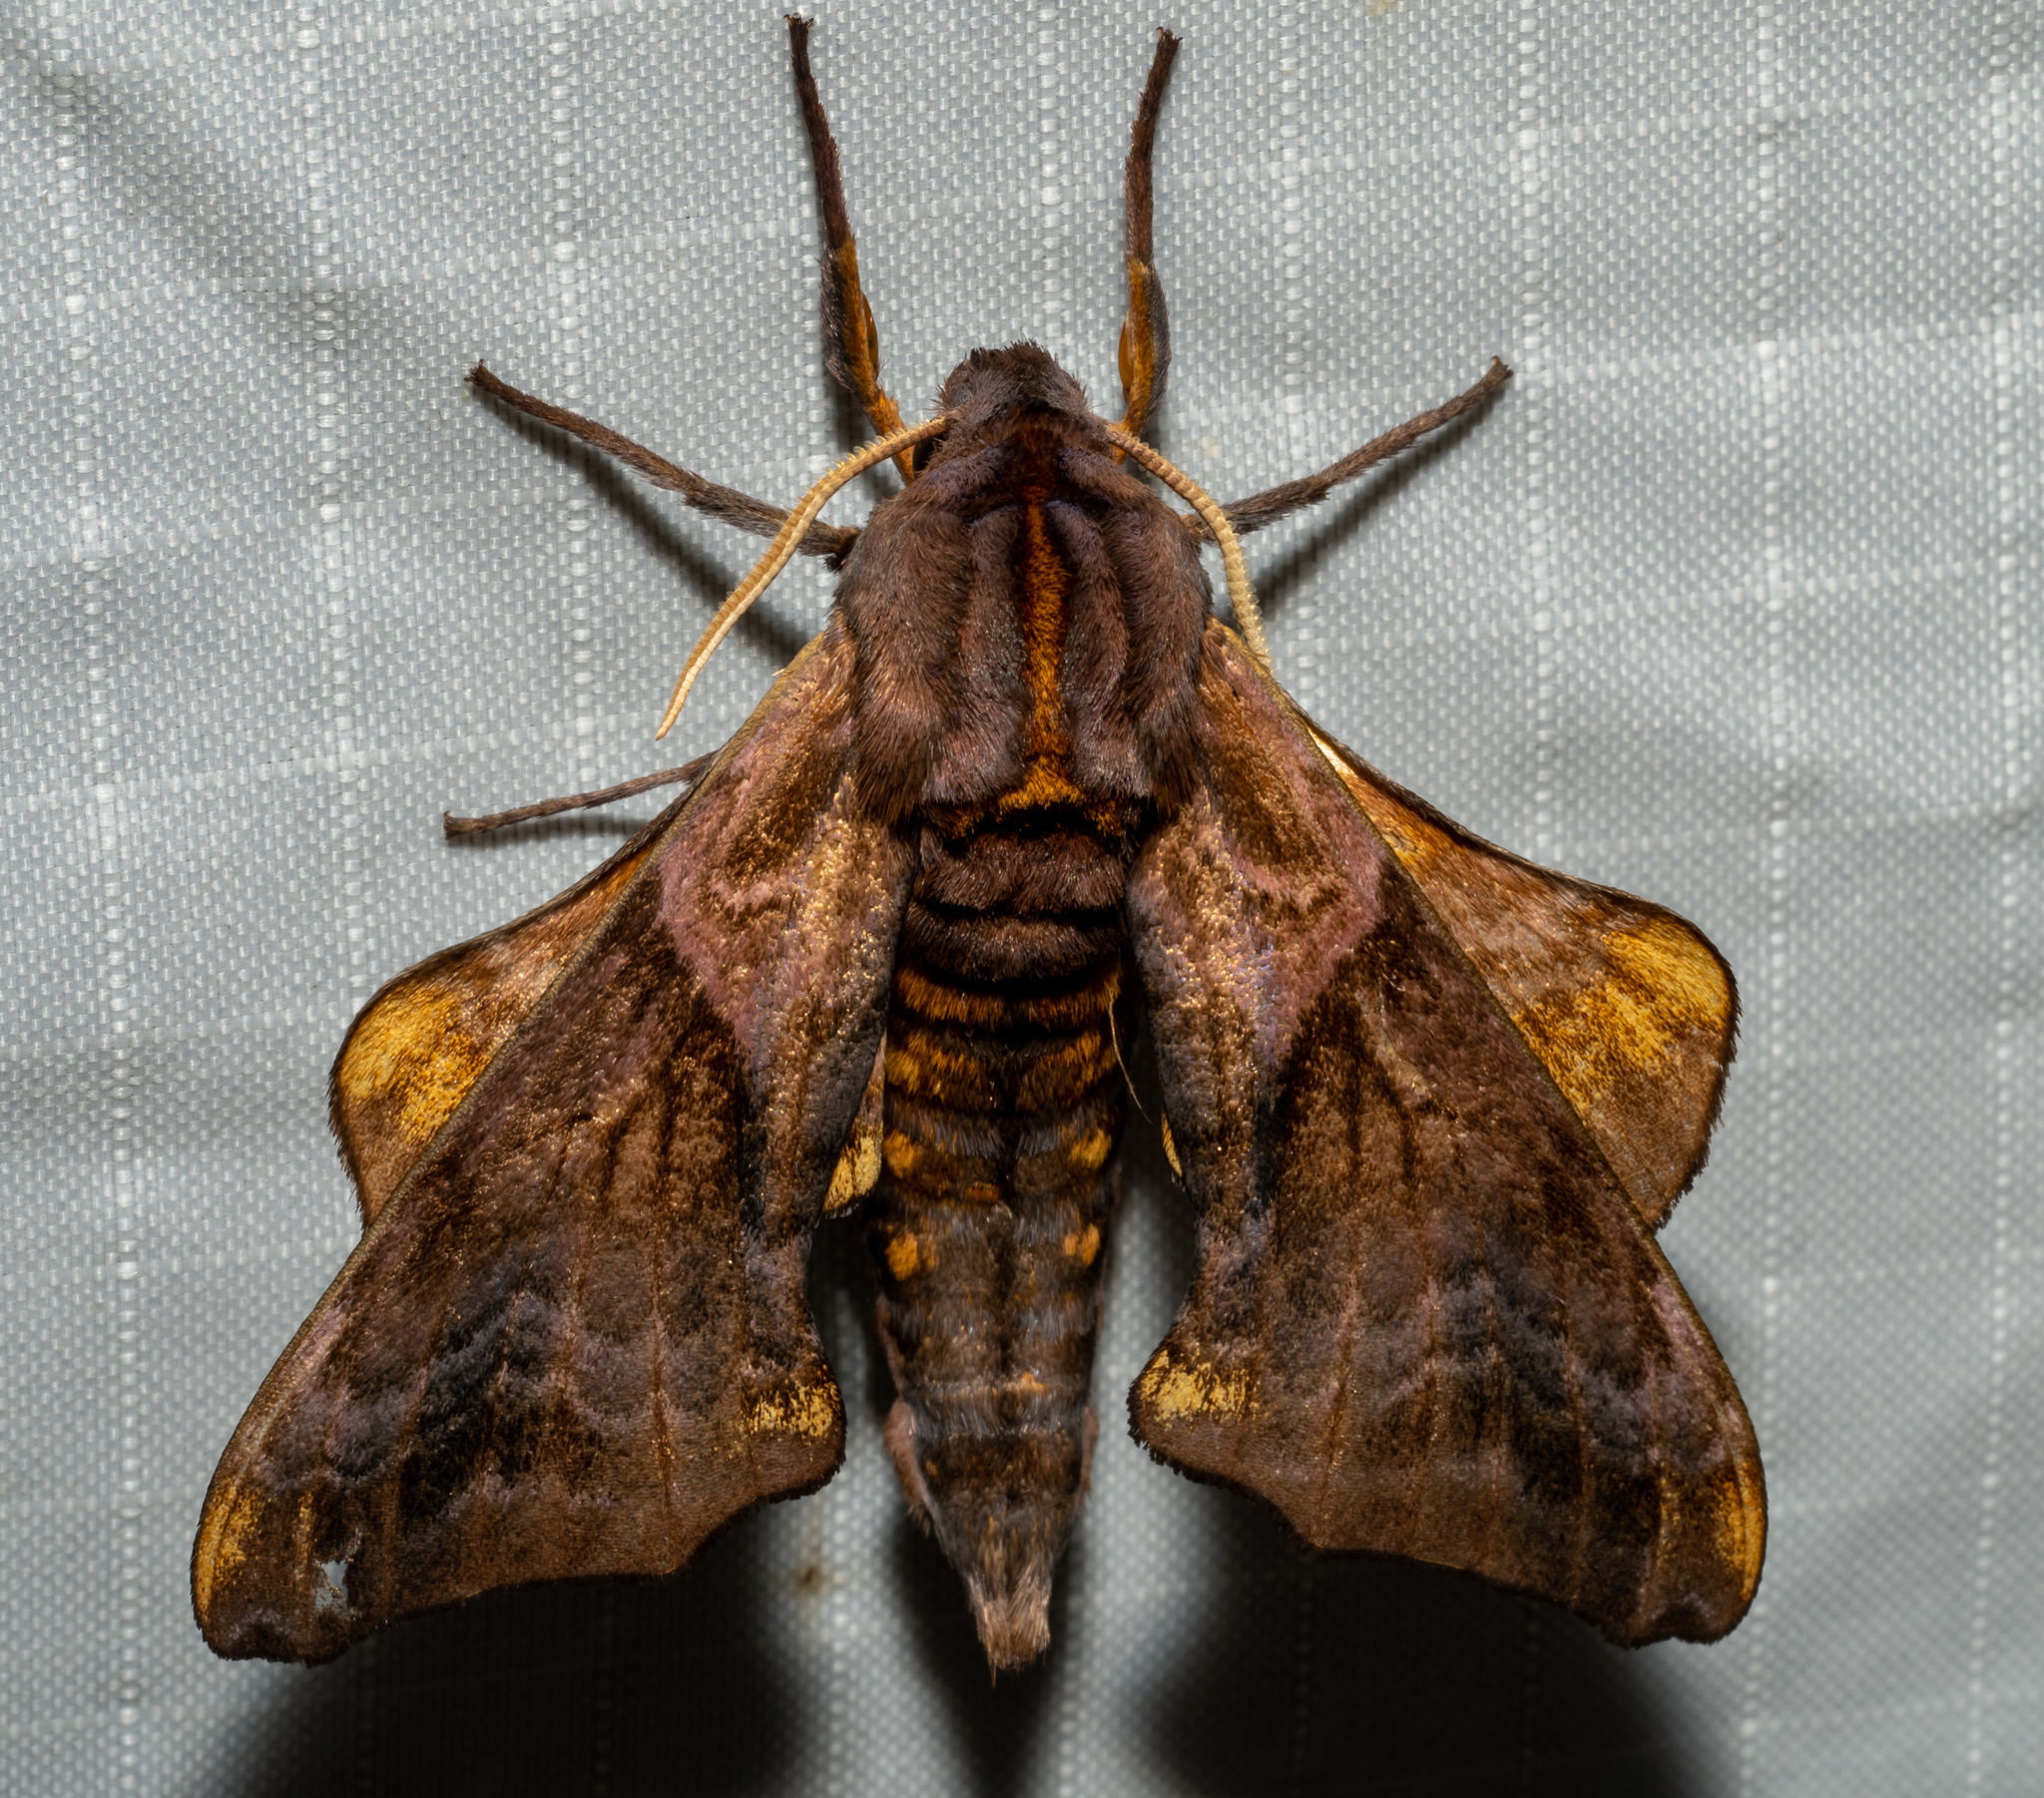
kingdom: Animalia
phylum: Arthropoda
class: Insecta
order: Lepidoptera
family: Sphingidae
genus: Paonias
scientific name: Paonias myops
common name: Small-eyed sphinx
